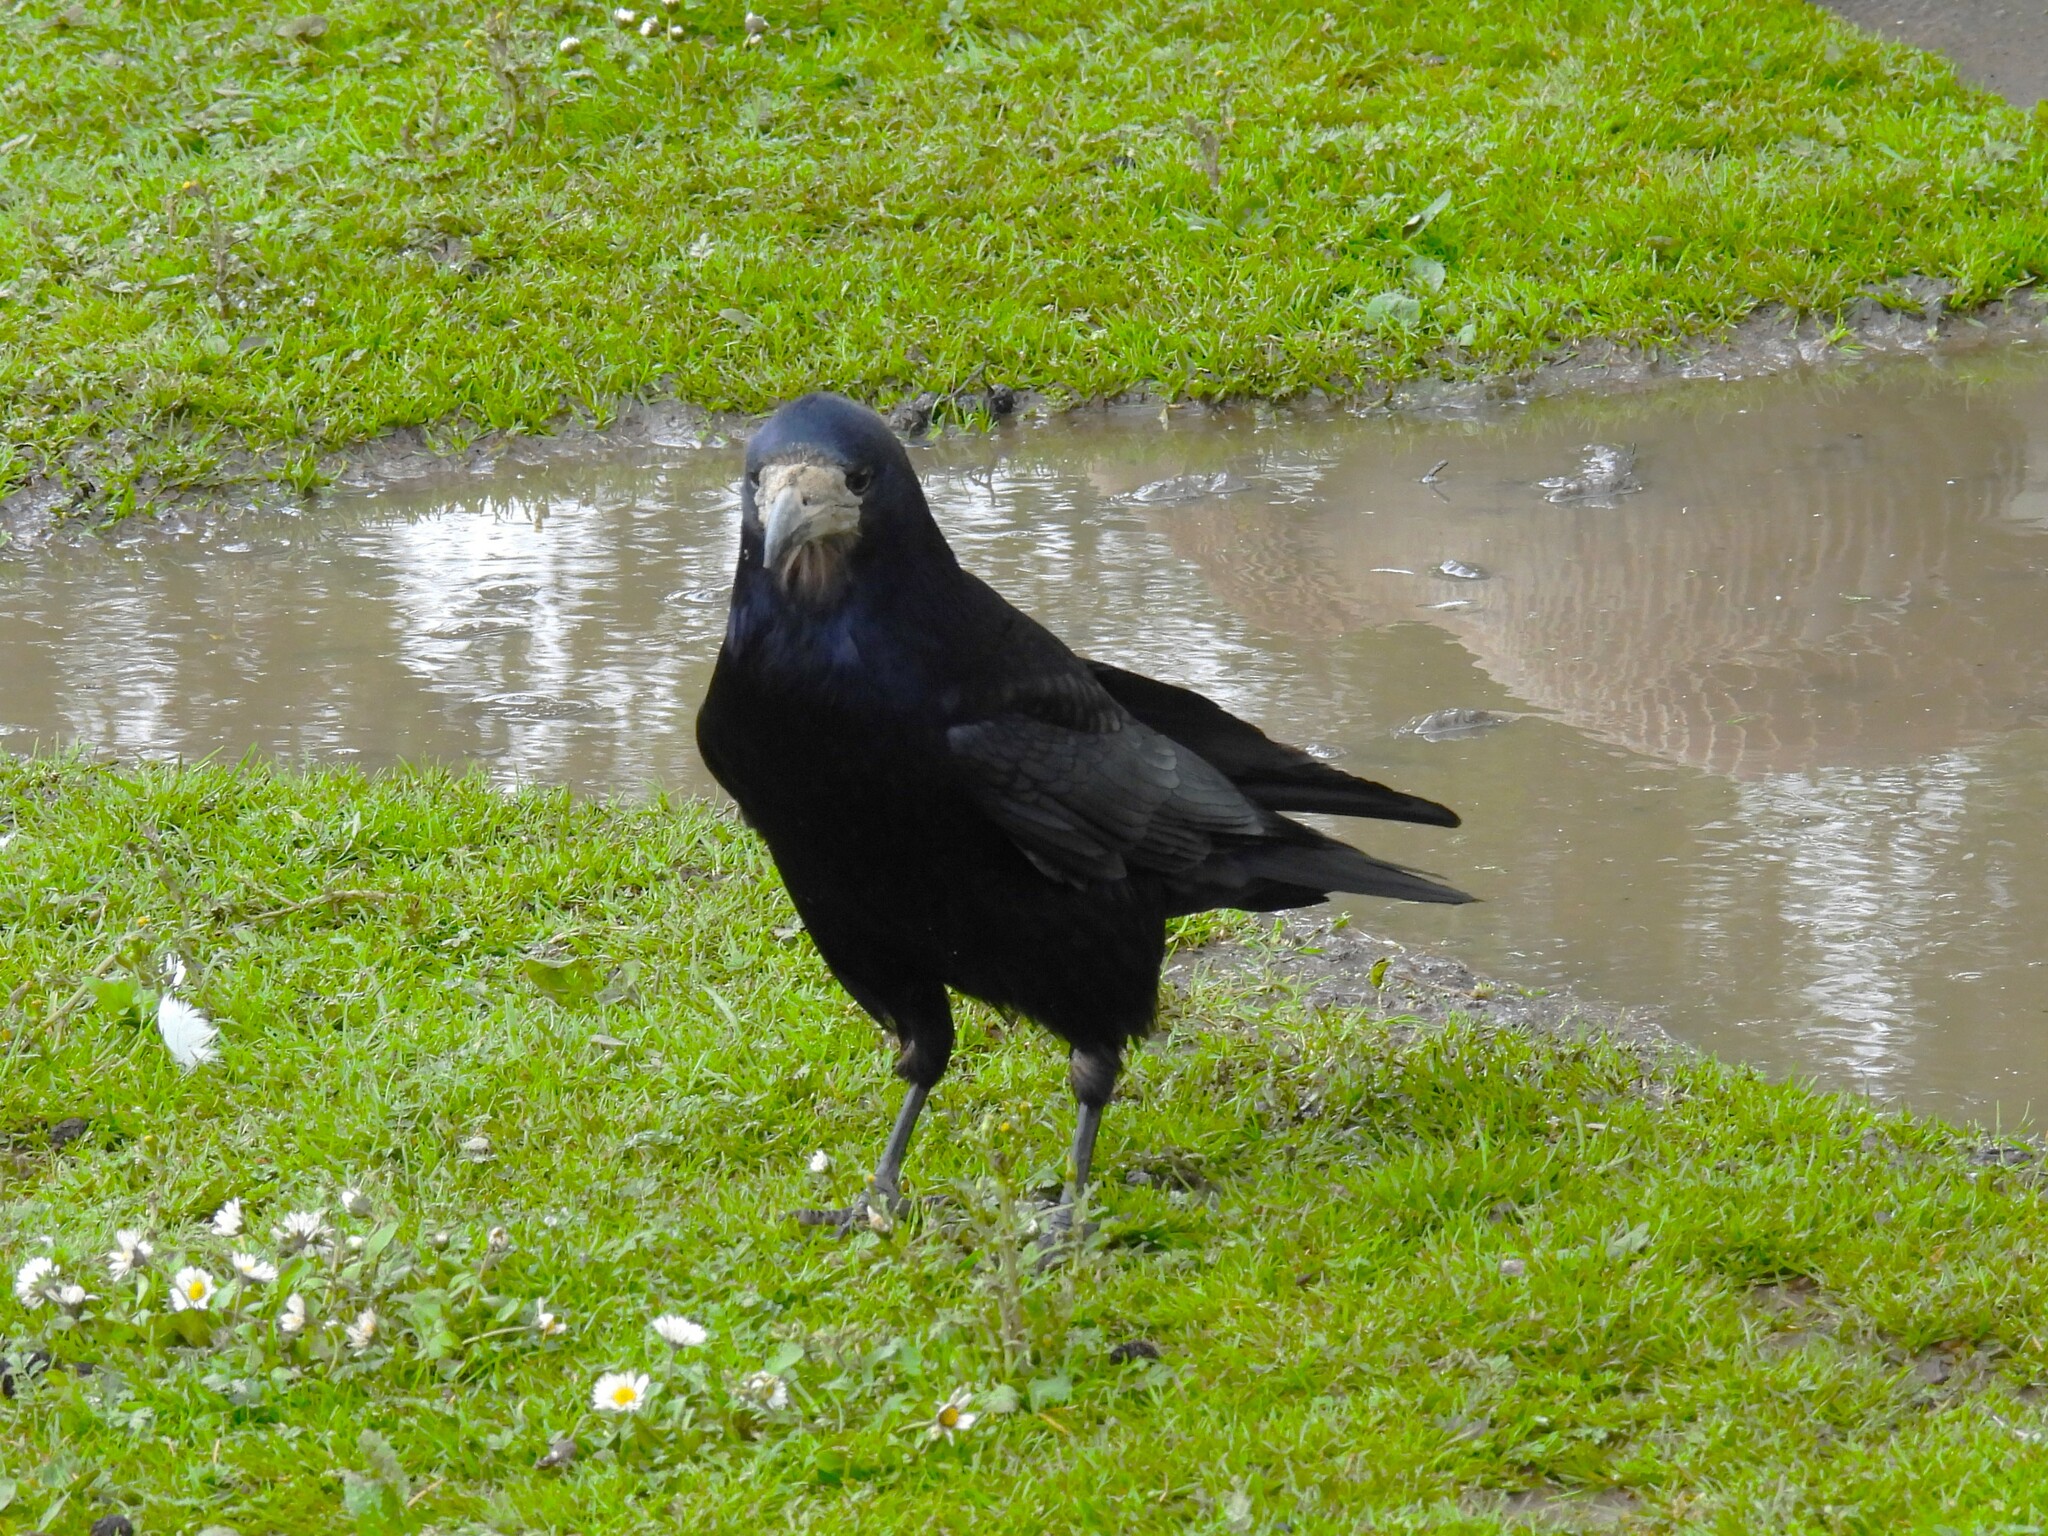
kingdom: Animalia
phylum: Chordata
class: Aves
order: Passeriformes
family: Corvidae
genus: Corvus
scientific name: Corvus frugilegus
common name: Rook
